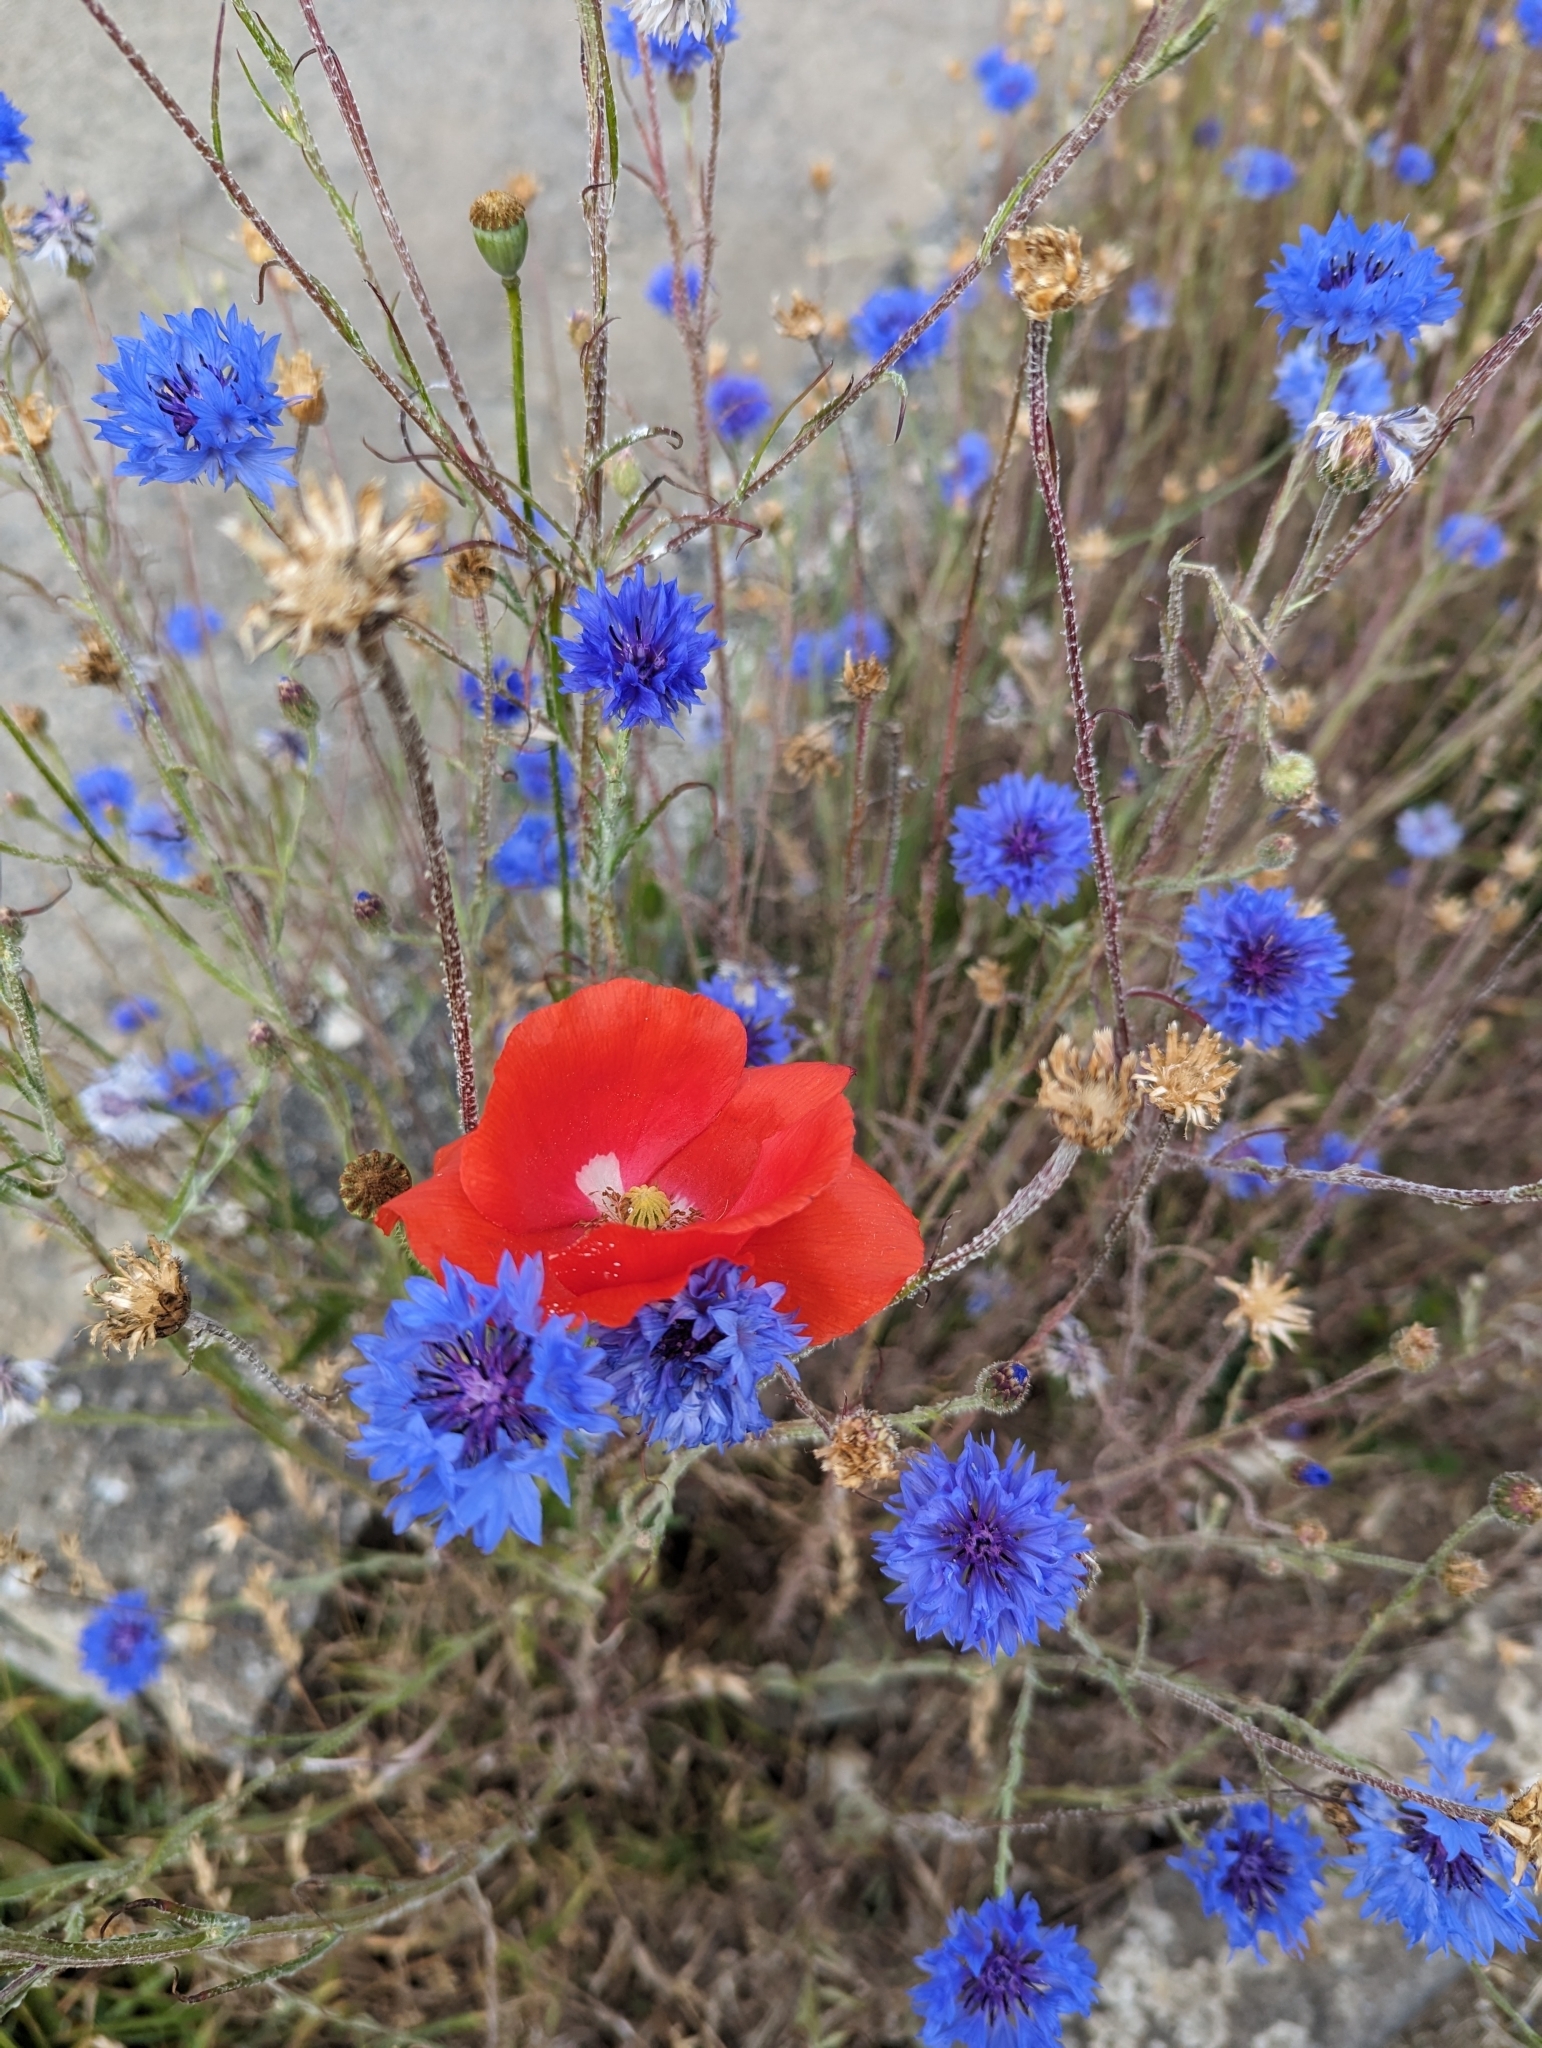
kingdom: Plantae
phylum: Tracheophyta
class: Magnoliopsida
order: Asterales
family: Asteraceae
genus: Centaurea
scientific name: Centaurea cyanus
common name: Cornflower
